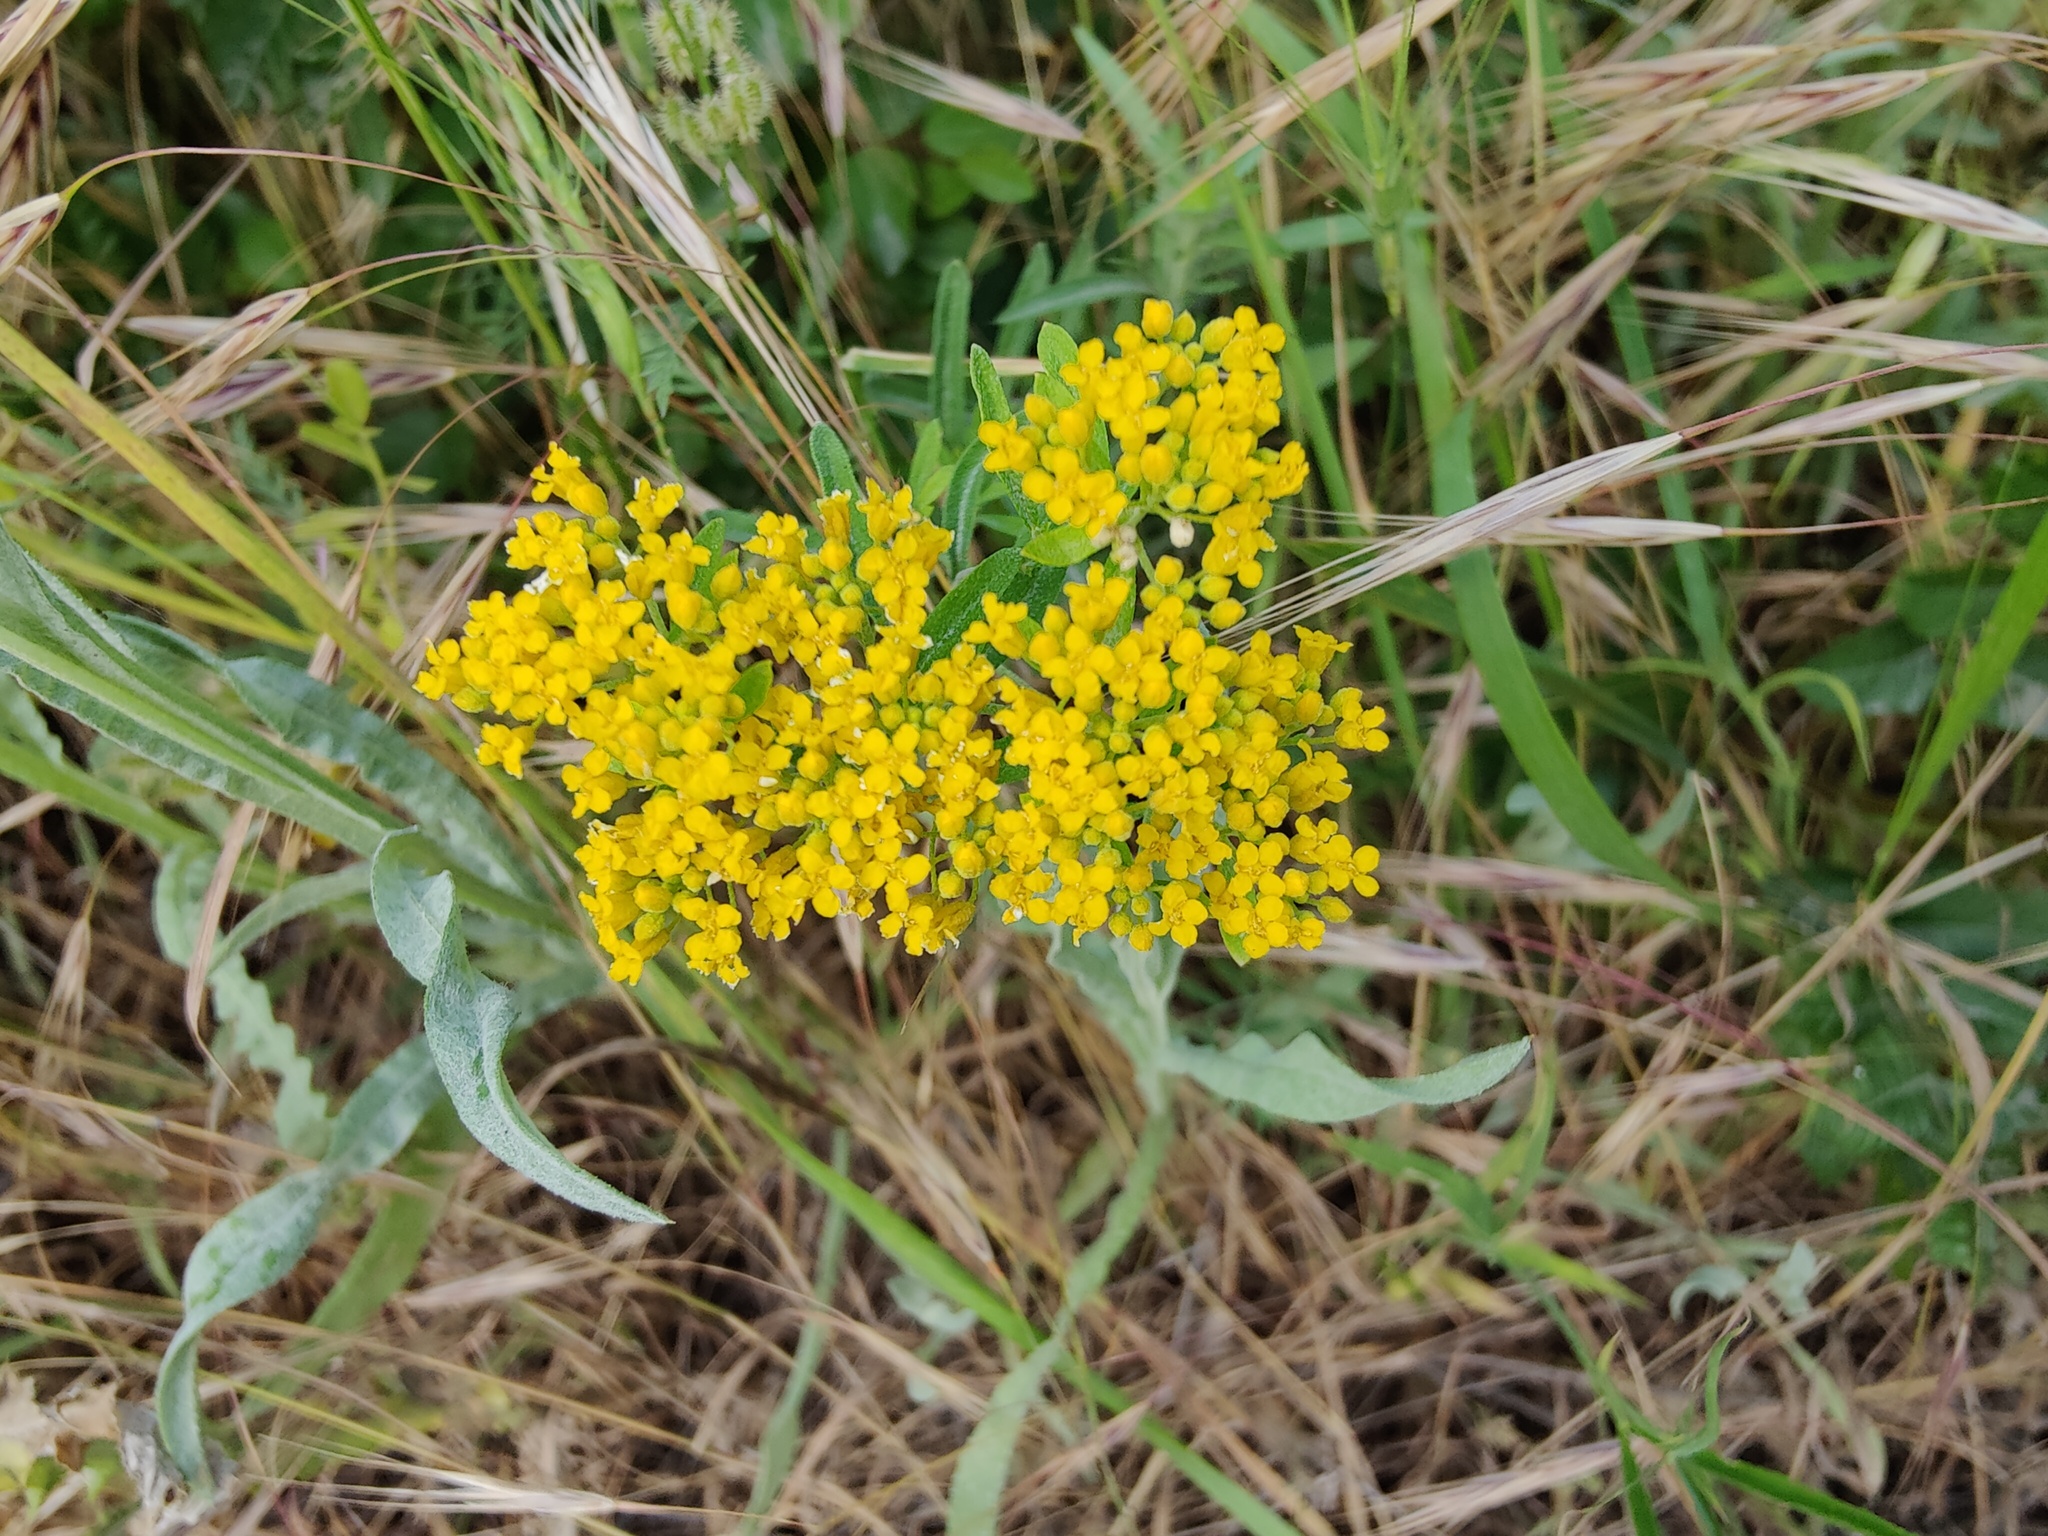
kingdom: Plantae
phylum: Tracheophyta
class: Magnoliopsida
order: Brassicales
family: Brassicaceae
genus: Odontarrhena
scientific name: Odontarrhena muralis
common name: Rock alyssum
